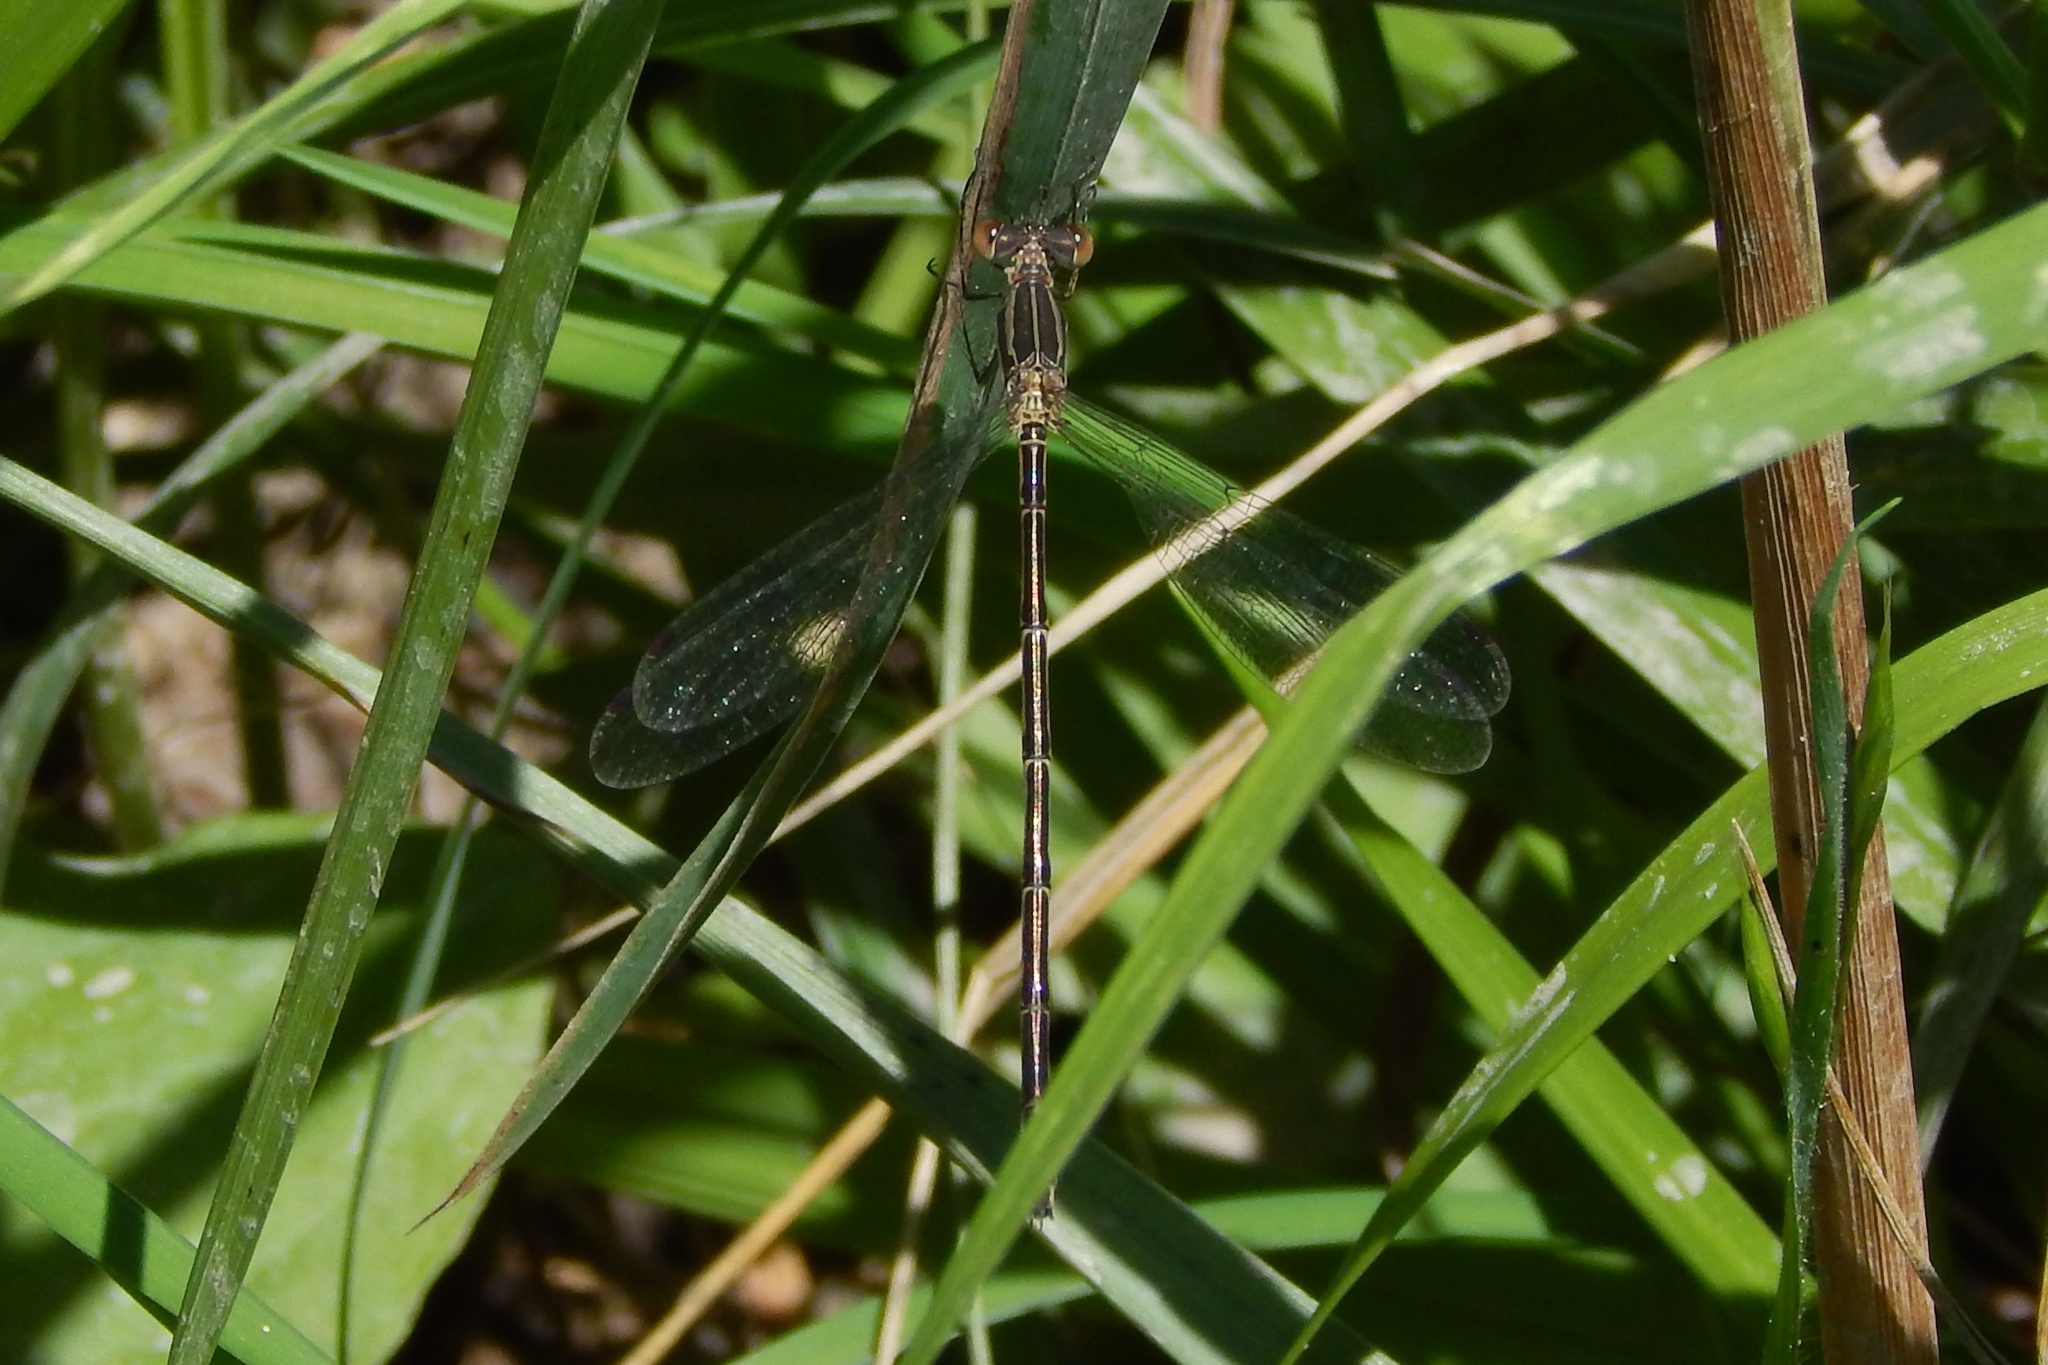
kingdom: Animalia
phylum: Arthropoda
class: Insecta
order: Odonata
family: Lestidae
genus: Lestes
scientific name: Lestes rectangularis
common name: Slender spreadwing
